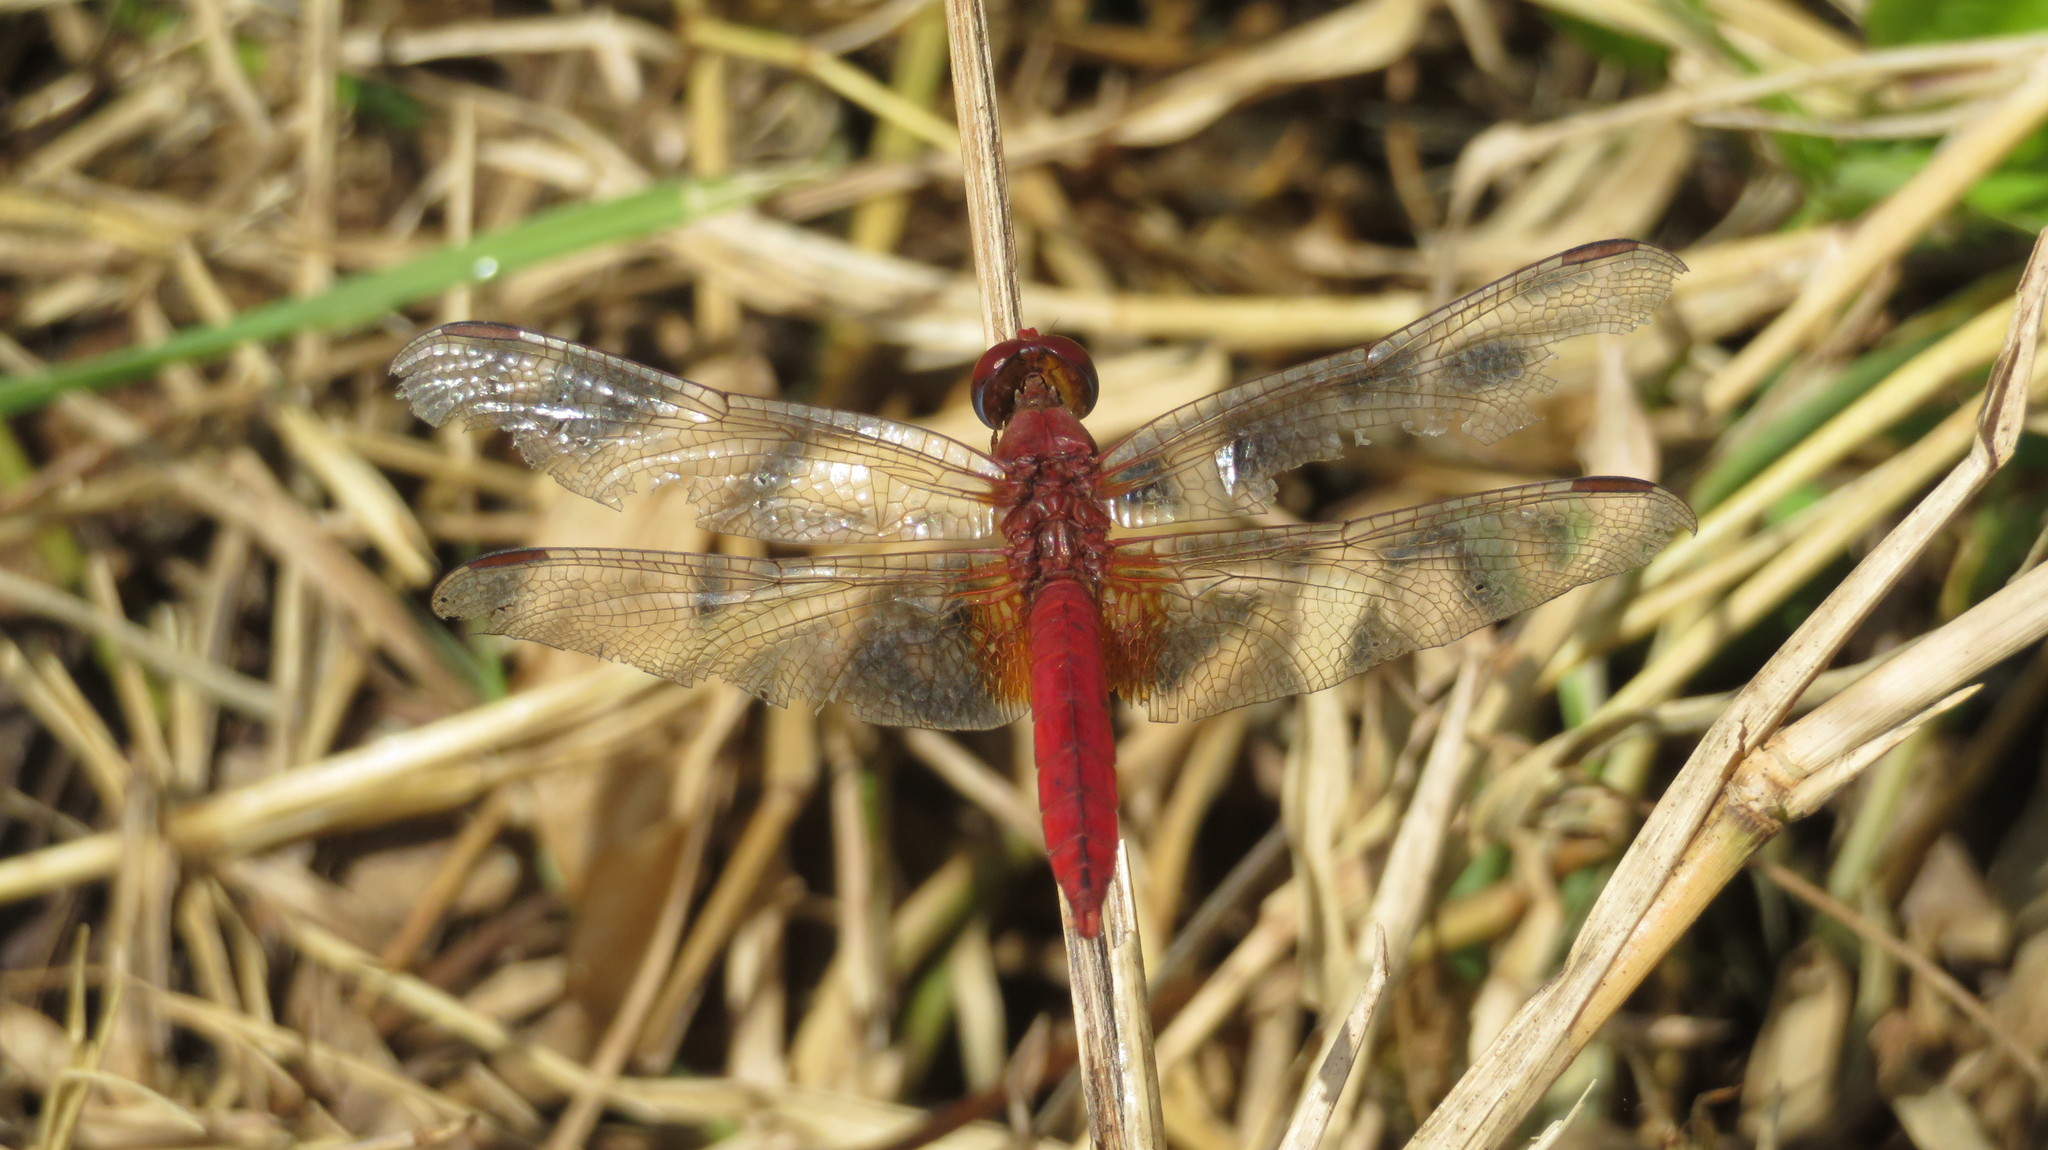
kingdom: Animalia
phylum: Arthropoda
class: Insecta
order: Odonata
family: Libellulidae
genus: Crocothemis
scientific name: Crocothemis erythraea
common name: Scarlet dragonfly
